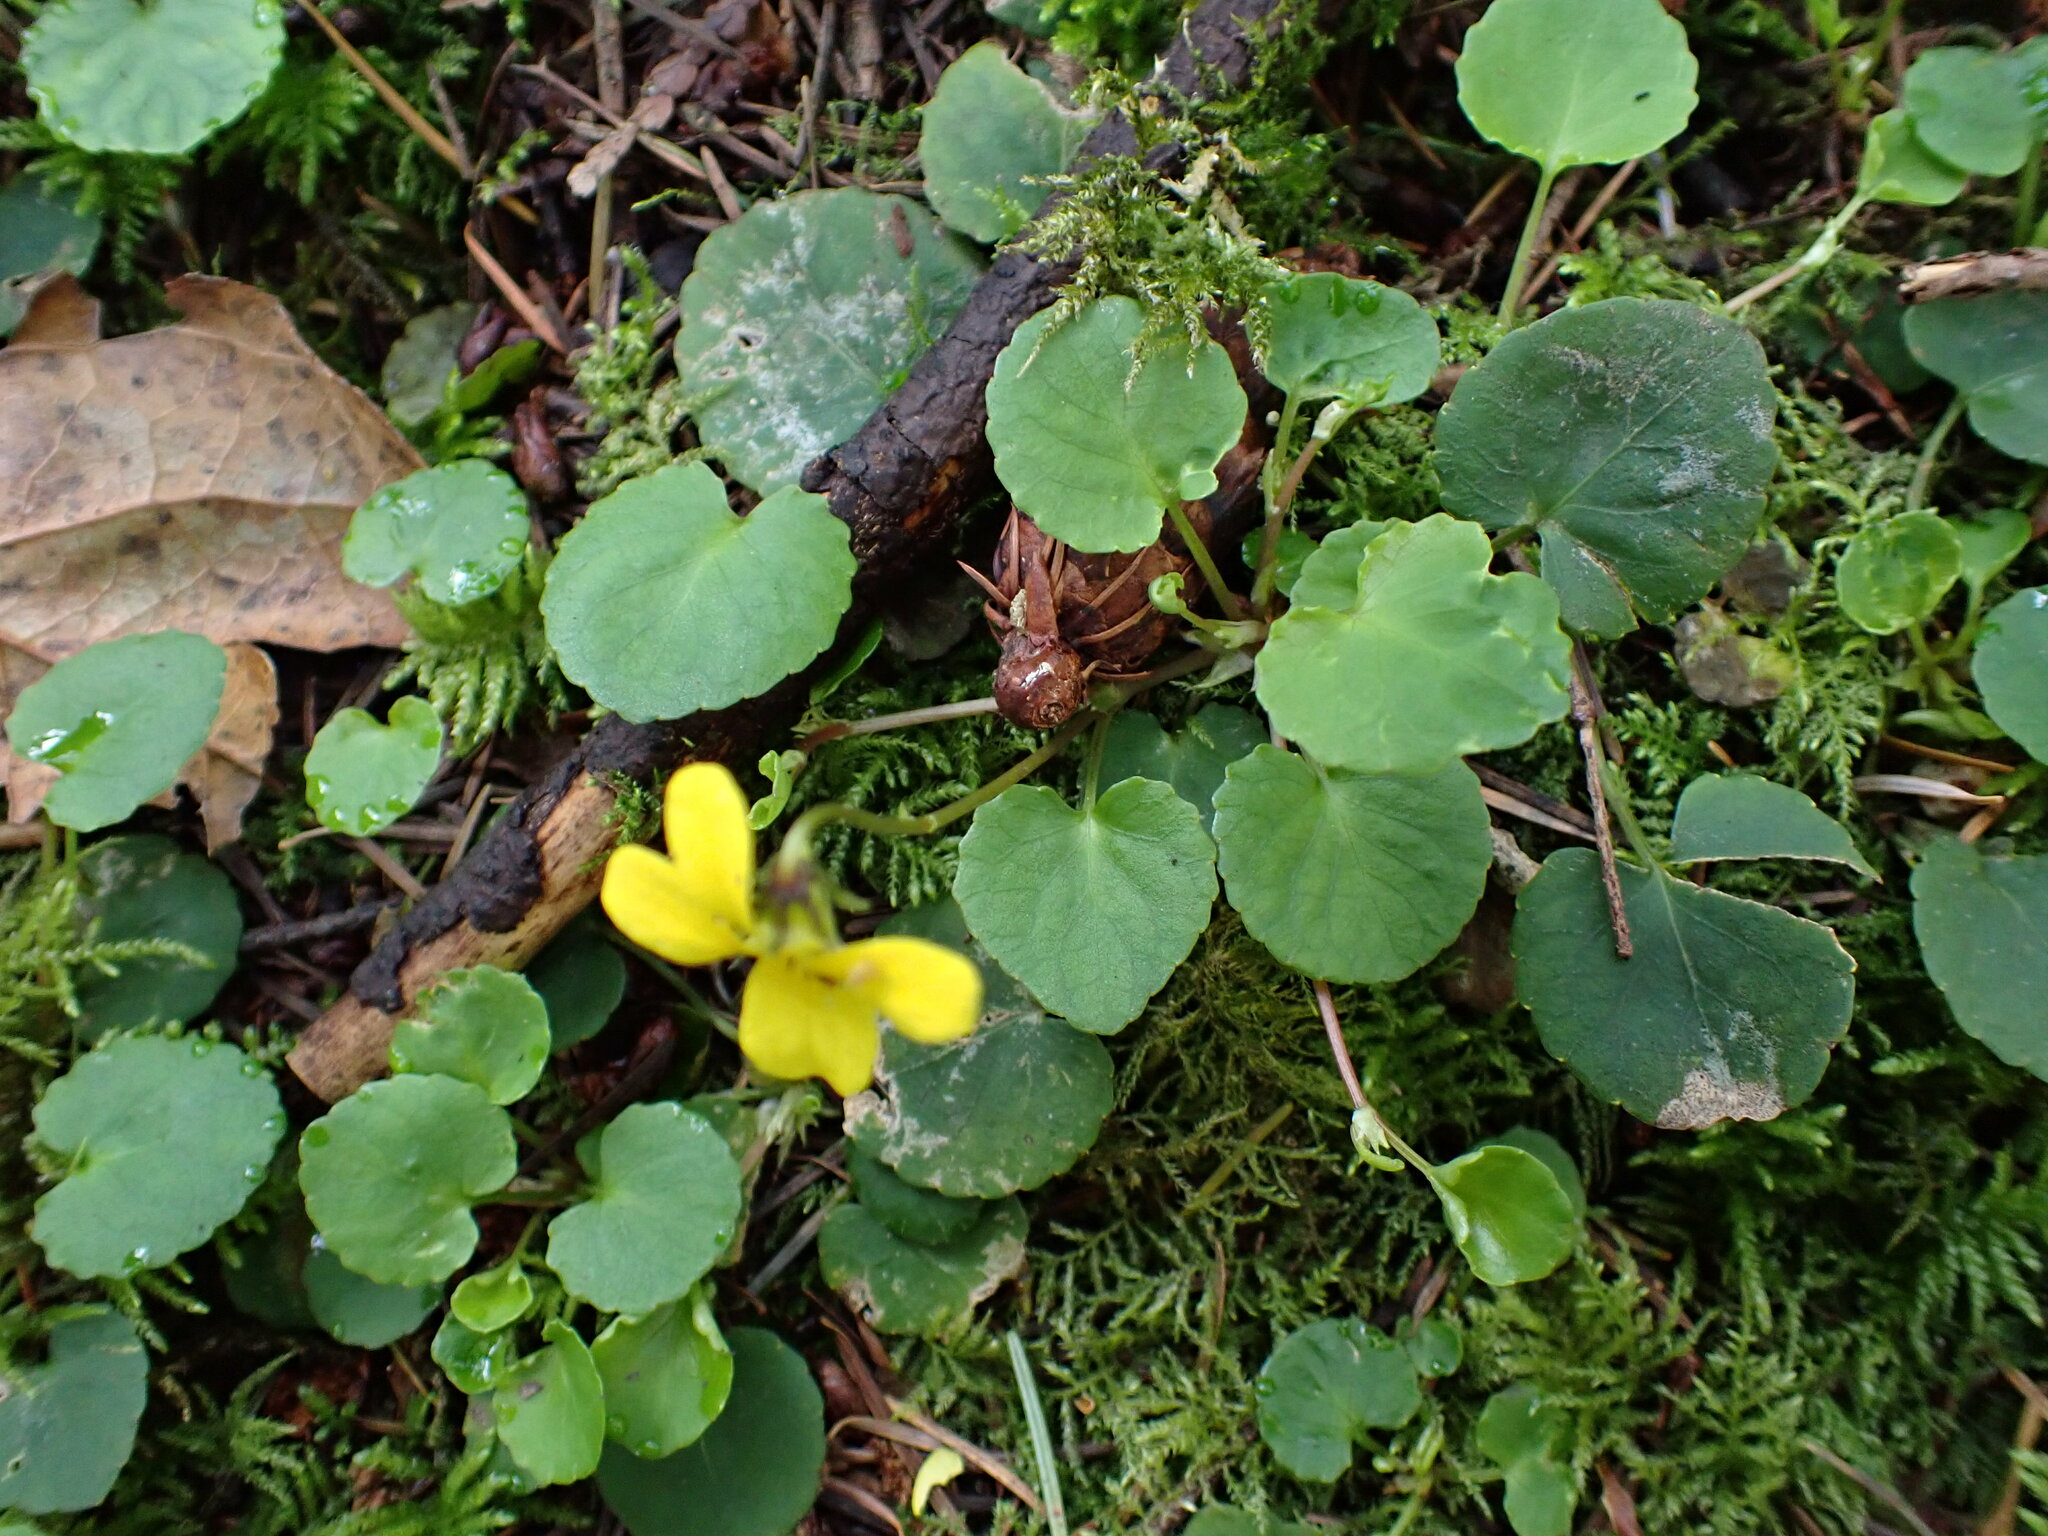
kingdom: Plantae
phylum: Tracheophyta
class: Magnoliopsida
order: Malpighiales
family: Violaceae
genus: Viola
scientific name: Viola sempervirens
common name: Evergreen violet
